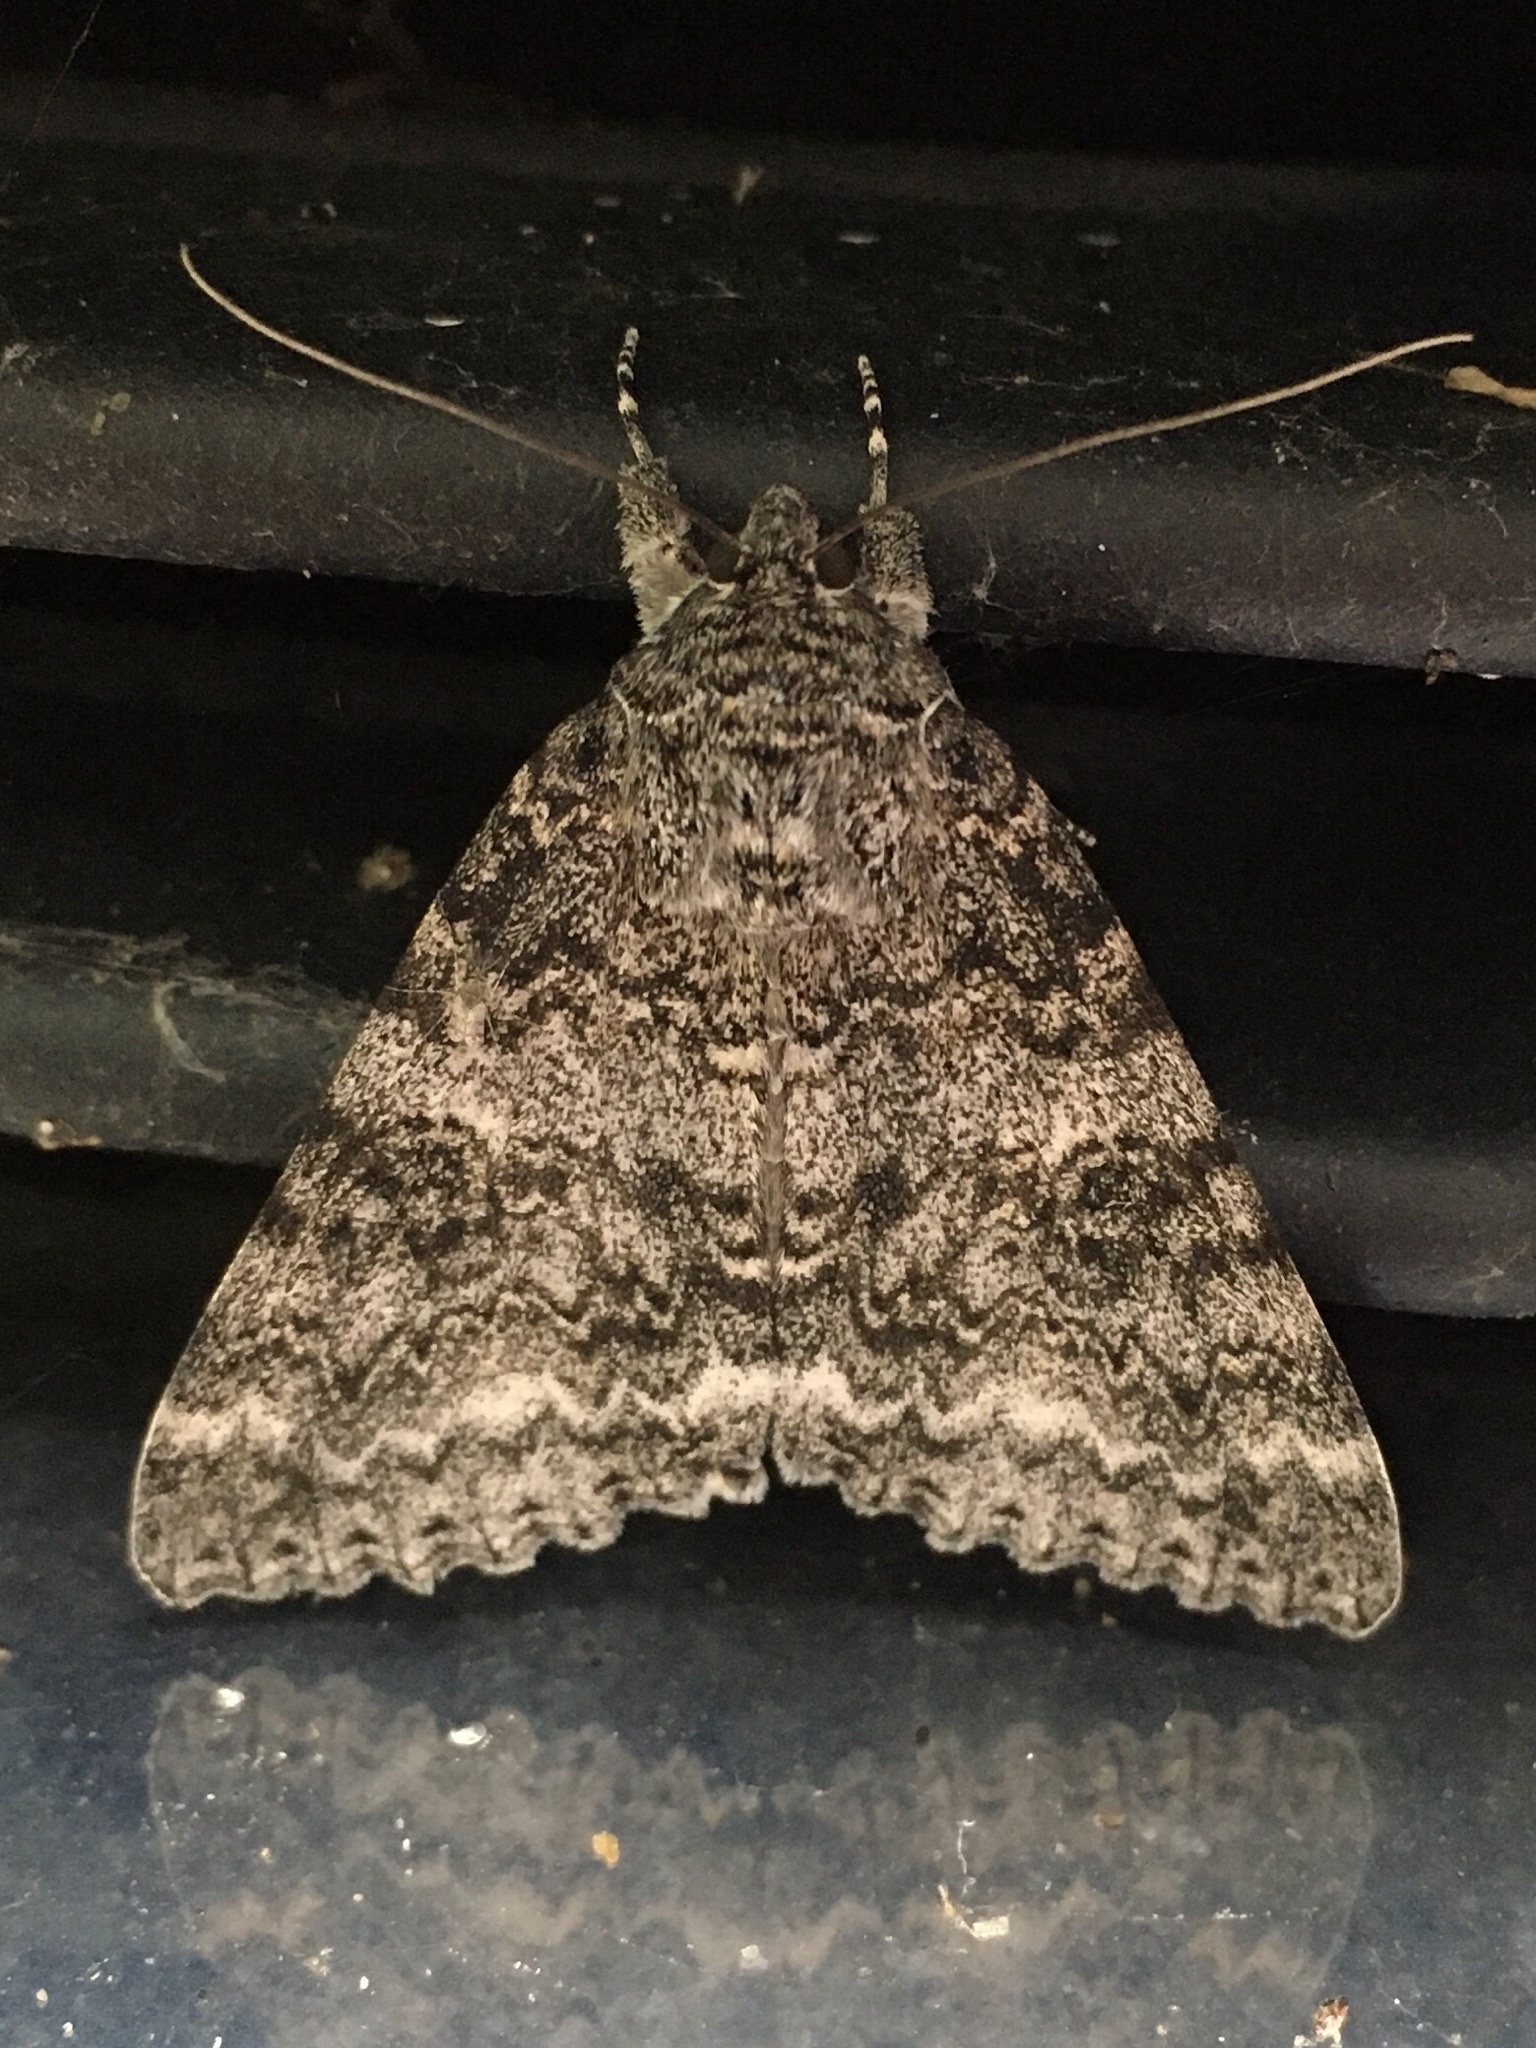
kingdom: Animalia
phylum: Arthropoda
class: Insecta
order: Lepidoptera
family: Erebidae
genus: Catocala
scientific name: Catocala unijuga
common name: Once-married underwing
